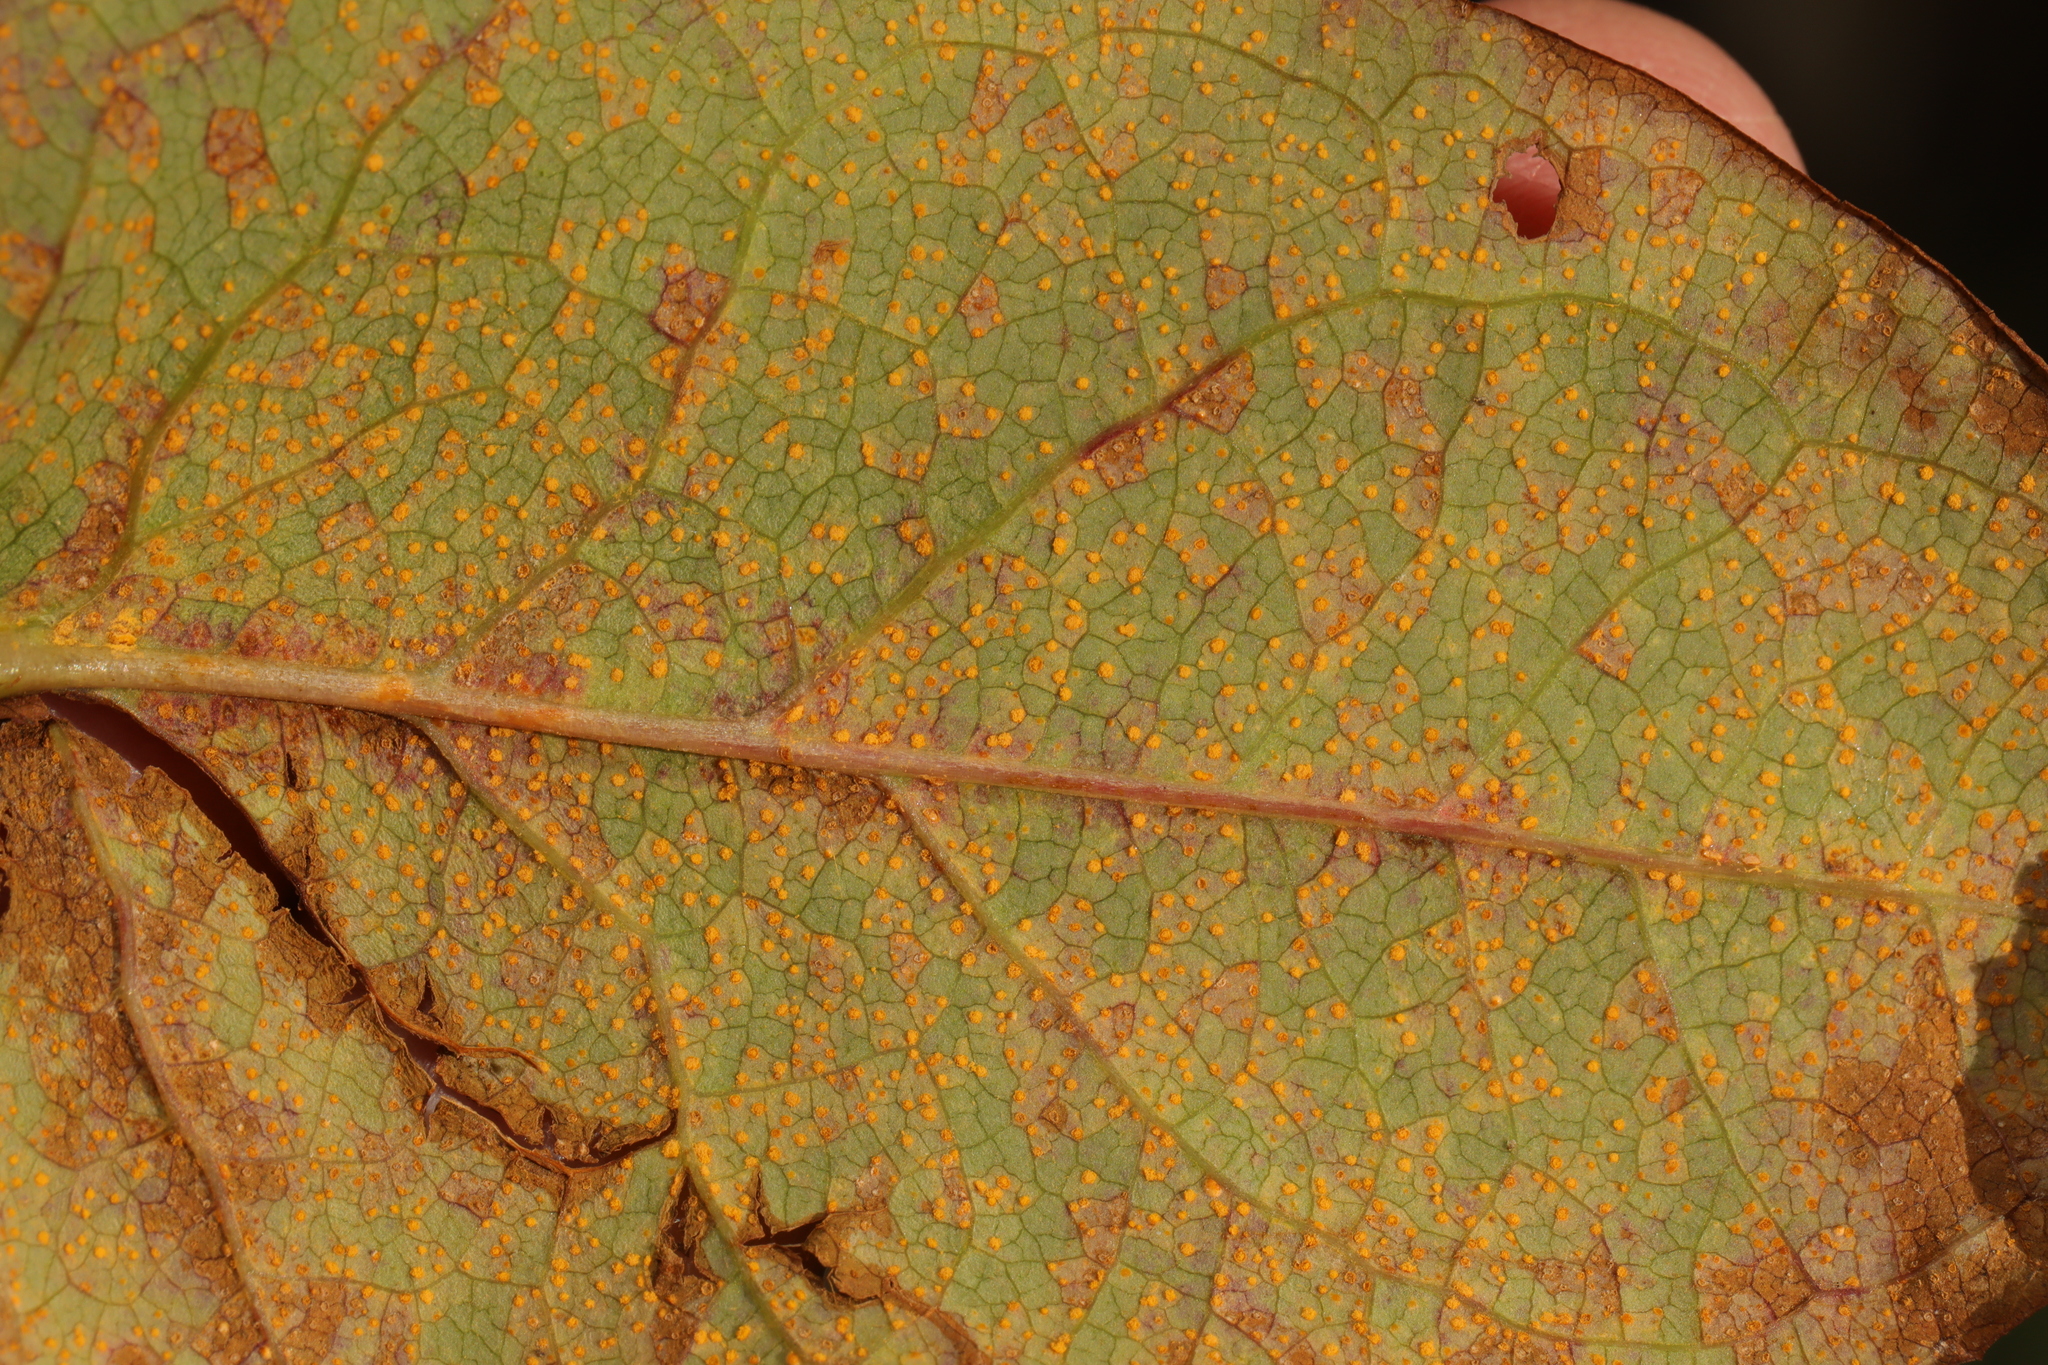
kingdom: Fungi
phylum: Basidiomycota
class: Pucciniomycetes
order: Pucciniales
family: Melampsoraceae
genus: Melampsora
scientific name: Melampsora
